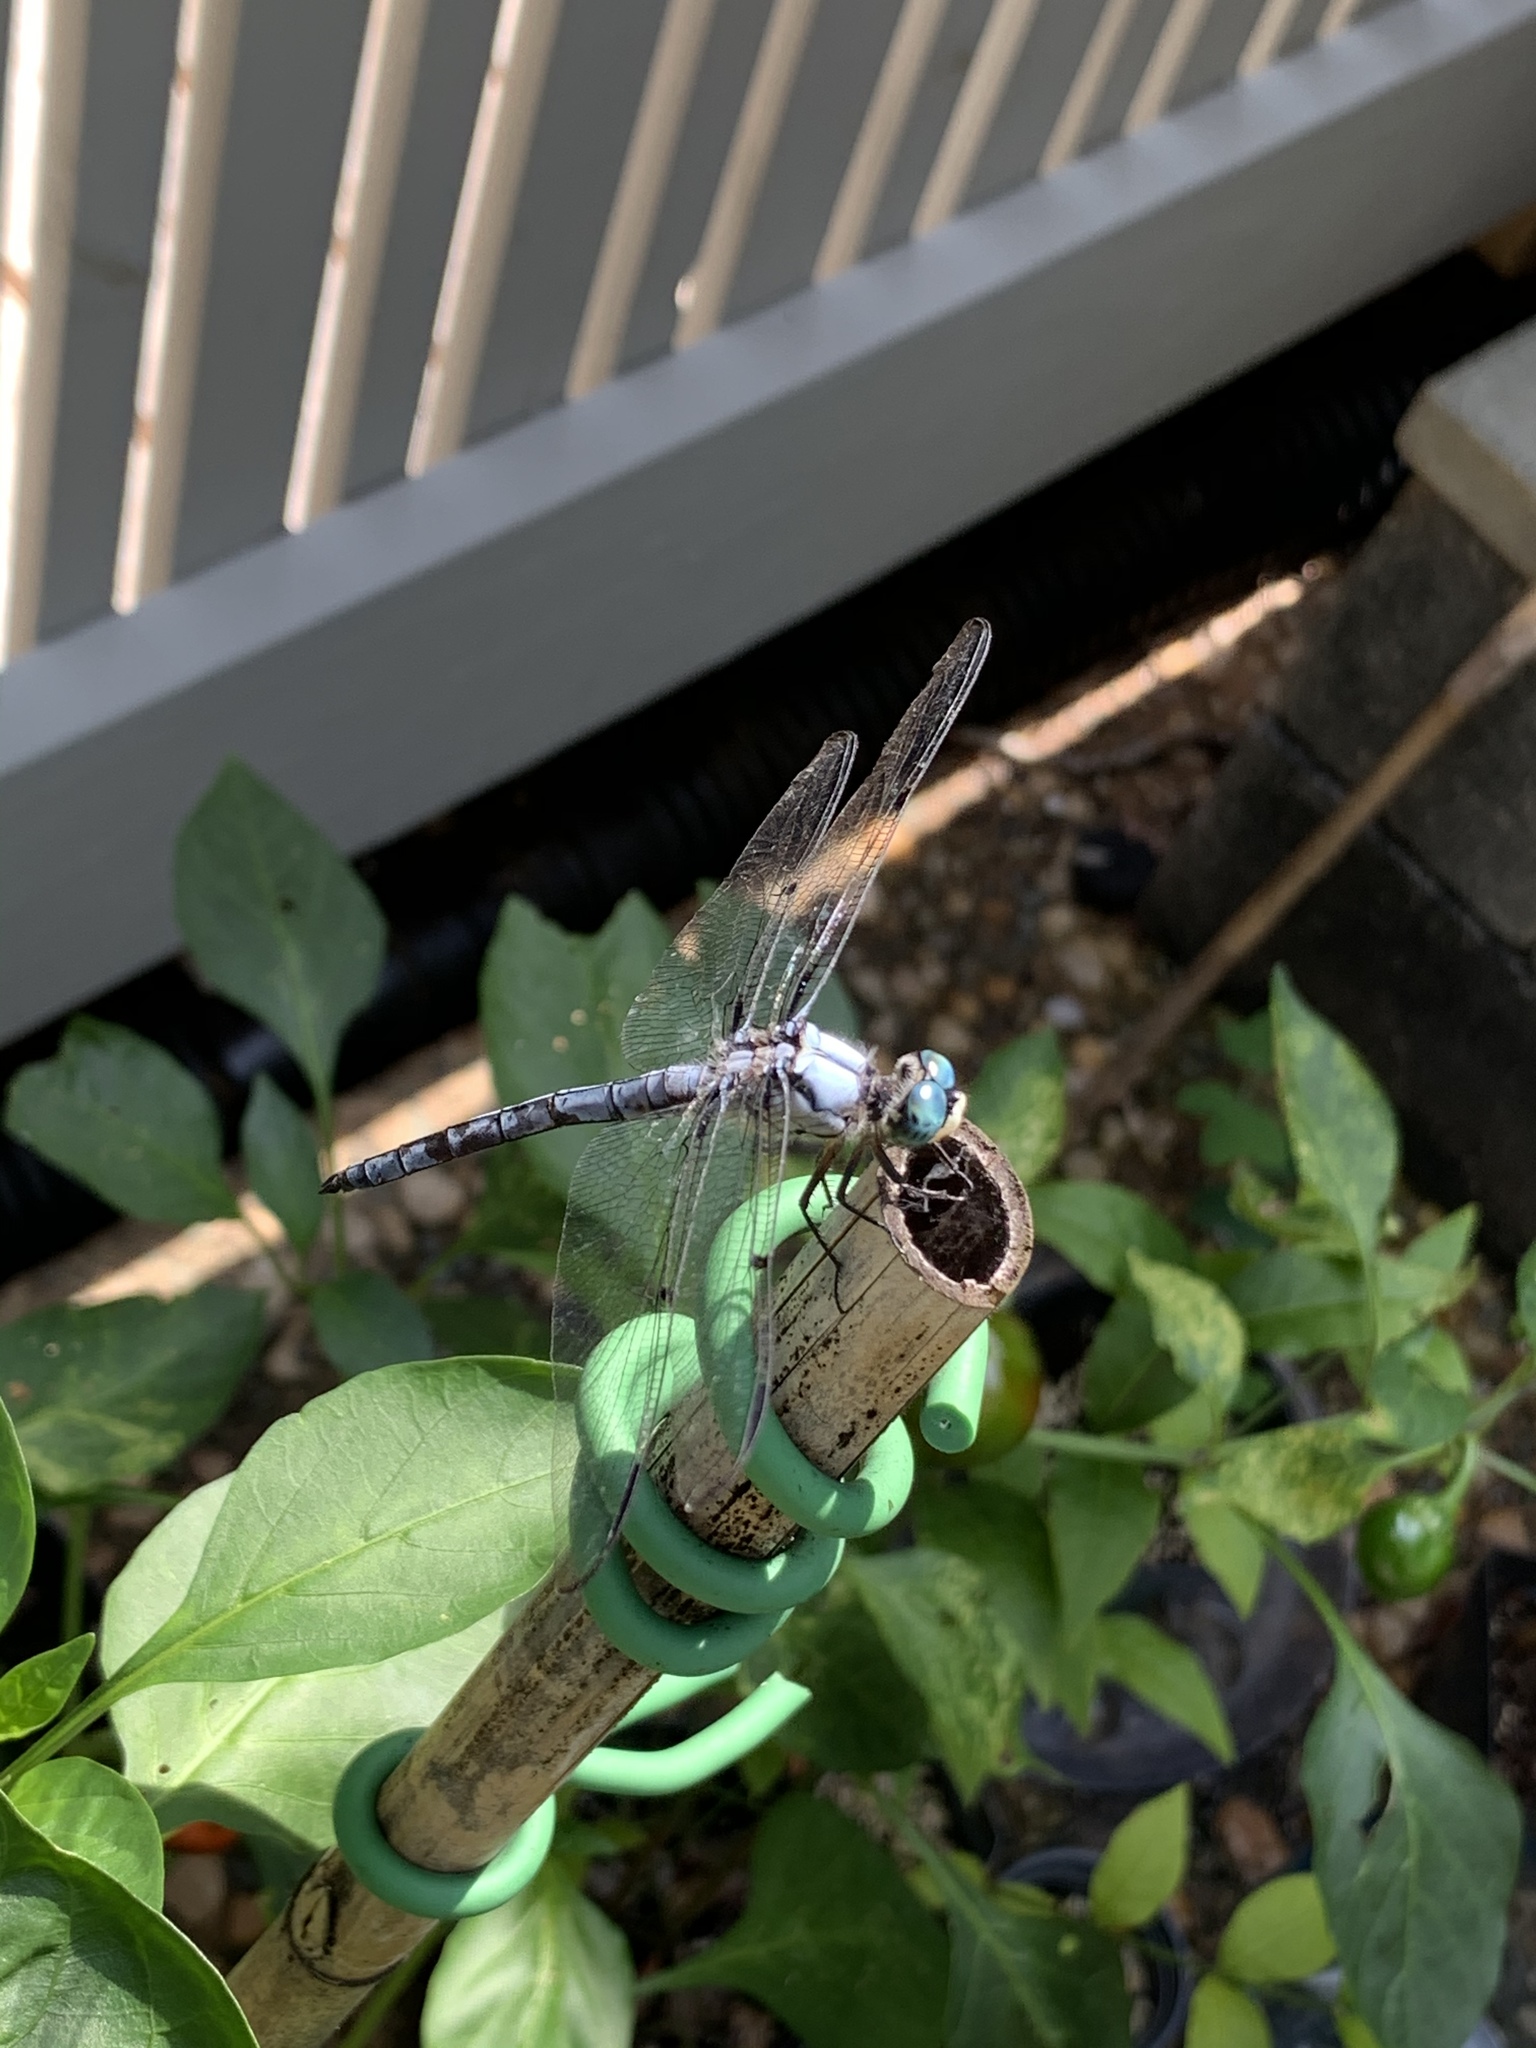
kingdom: Animalia
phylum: Arthropoda
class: Insecta
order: Odonata
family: Libellulidae
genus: Libellula
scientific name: Libellula vibrans
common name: Great blue skimmer
